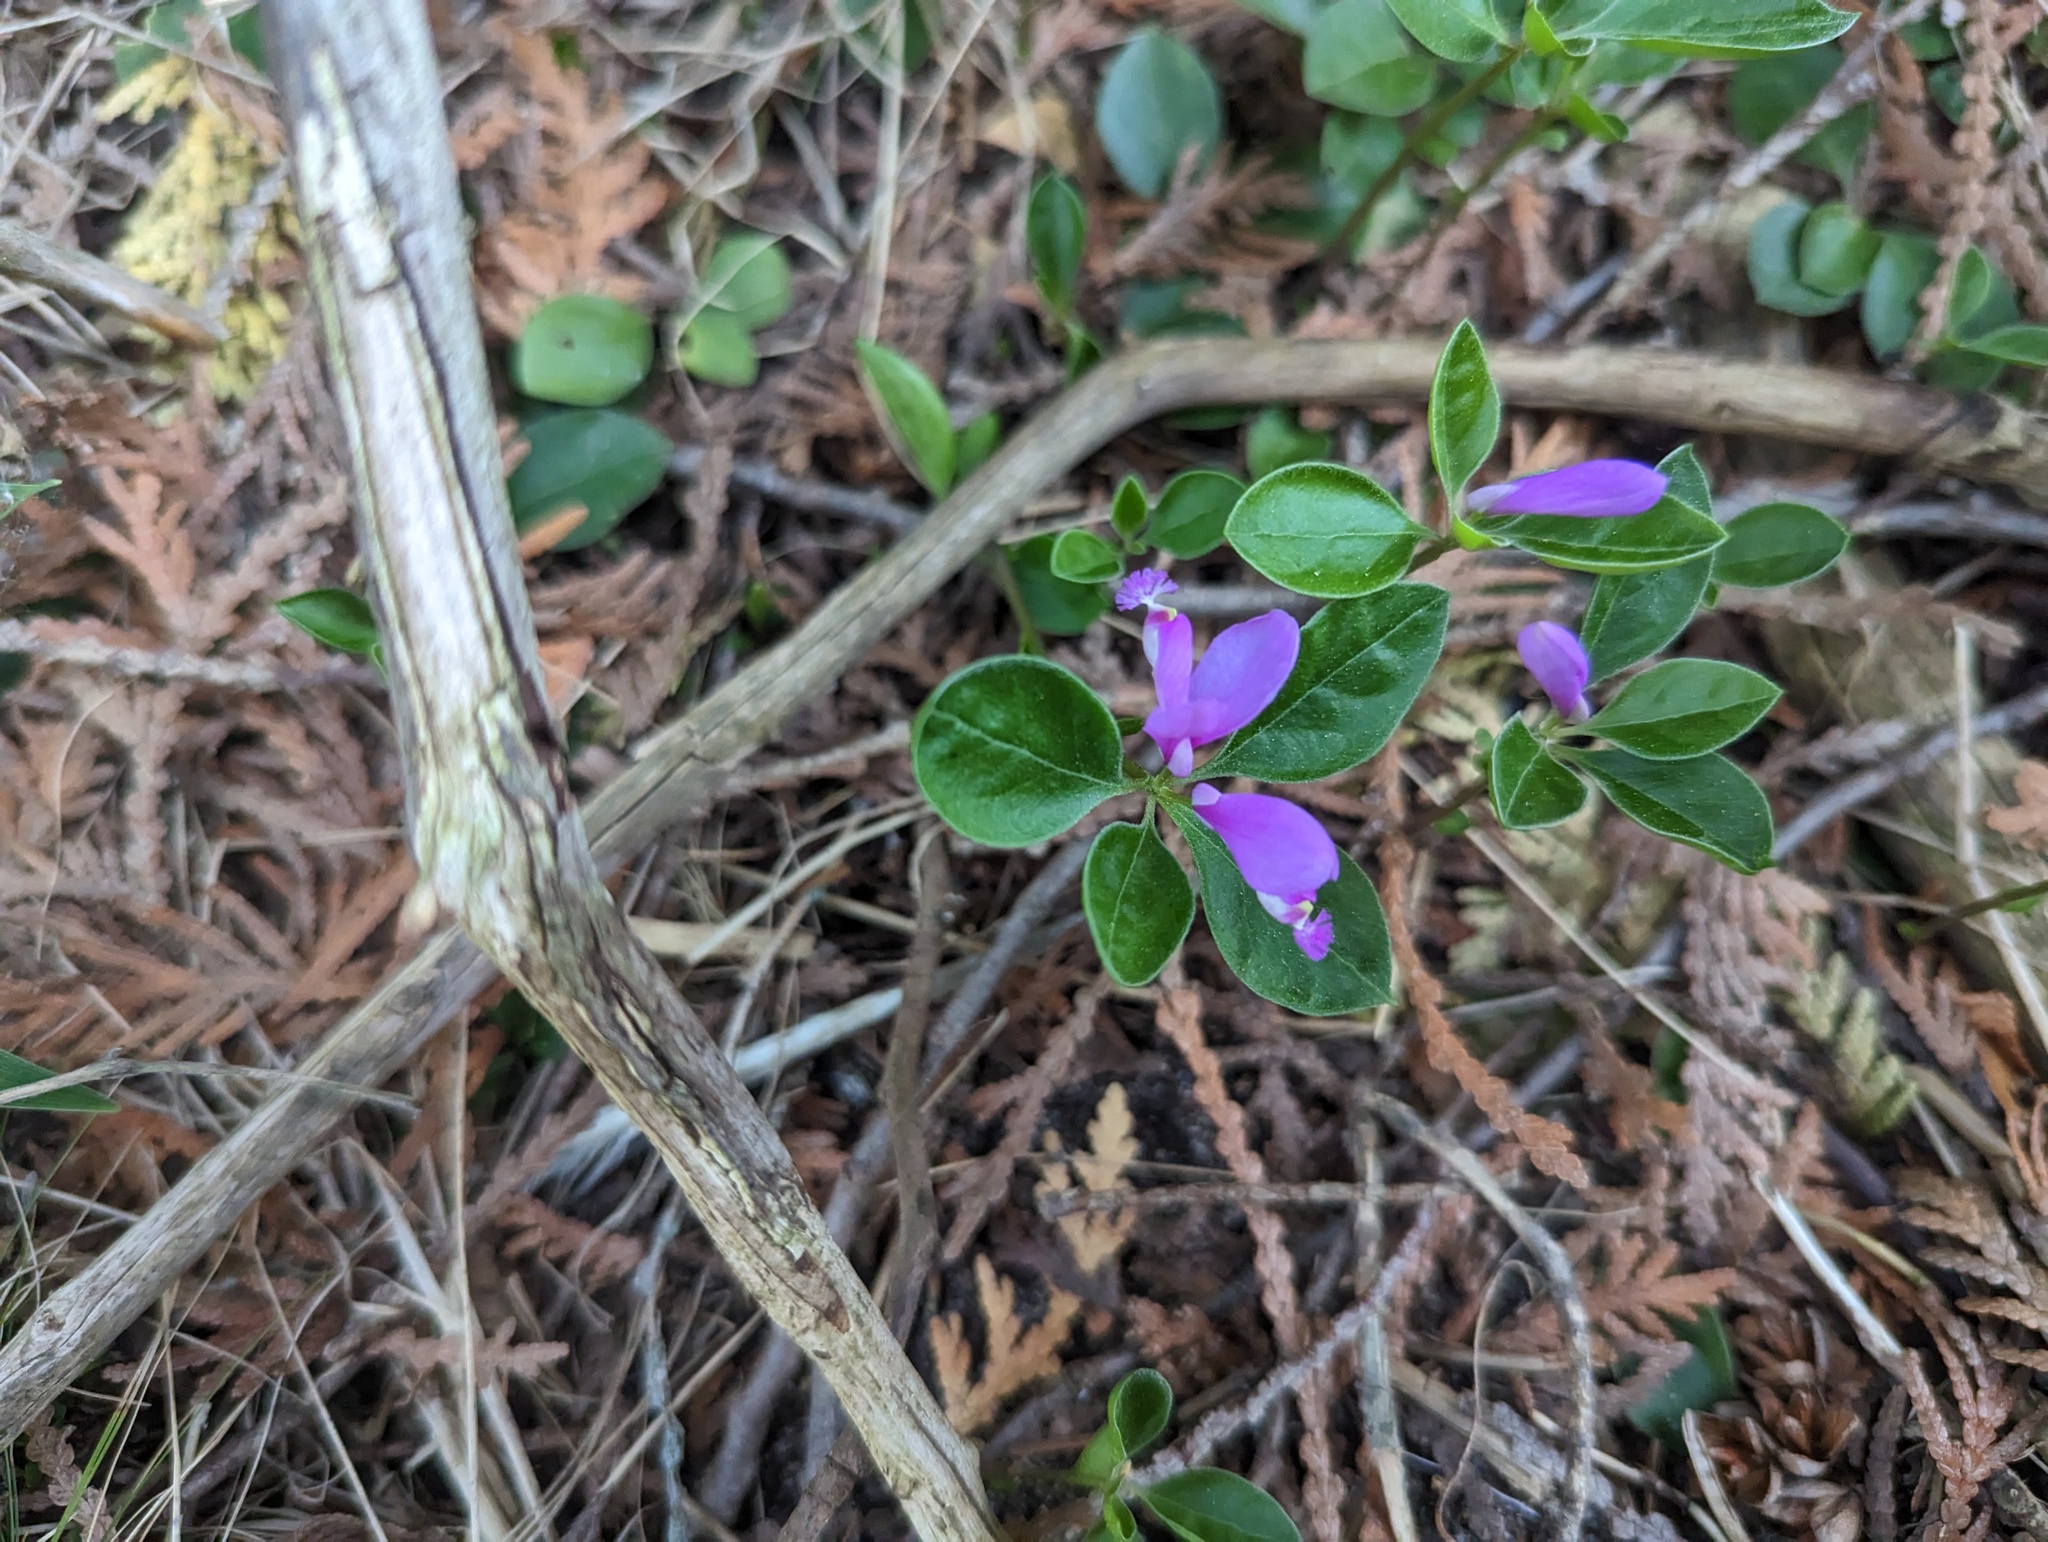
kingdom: Plantae
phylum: Tracheophyta
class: Magnoliopsida
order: Fabales
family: Polygalaceae
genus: Polygaloides
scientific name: Polygaloides paucifolia
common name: Bird-on-the-wing
